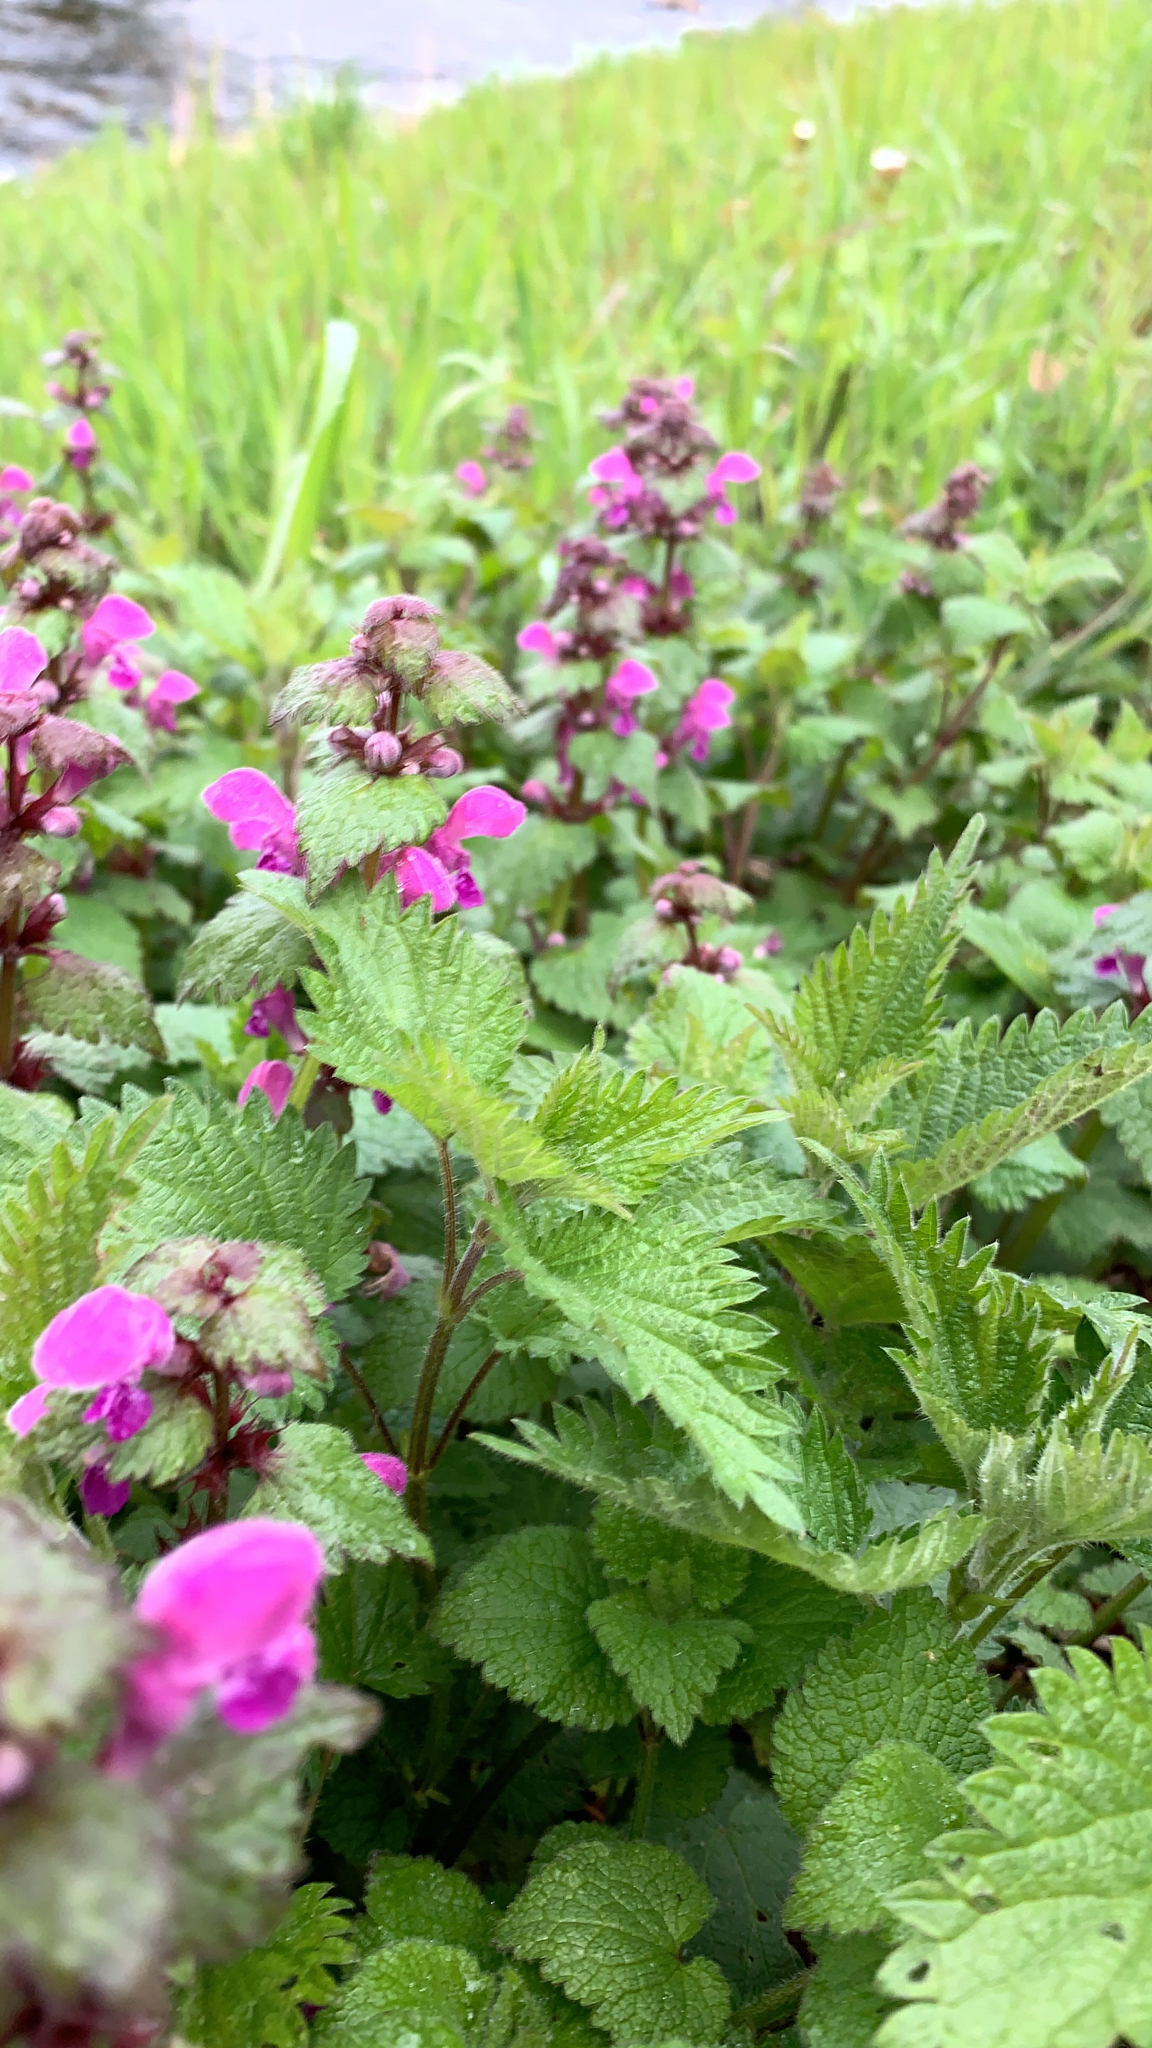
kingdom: Plantae
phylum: Tracheophyta
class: Magnoliopsida
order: Lamiales
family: Lamiaceae
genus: Lamium
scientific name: Lamium maculatum
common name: Spotted dead-nettle
